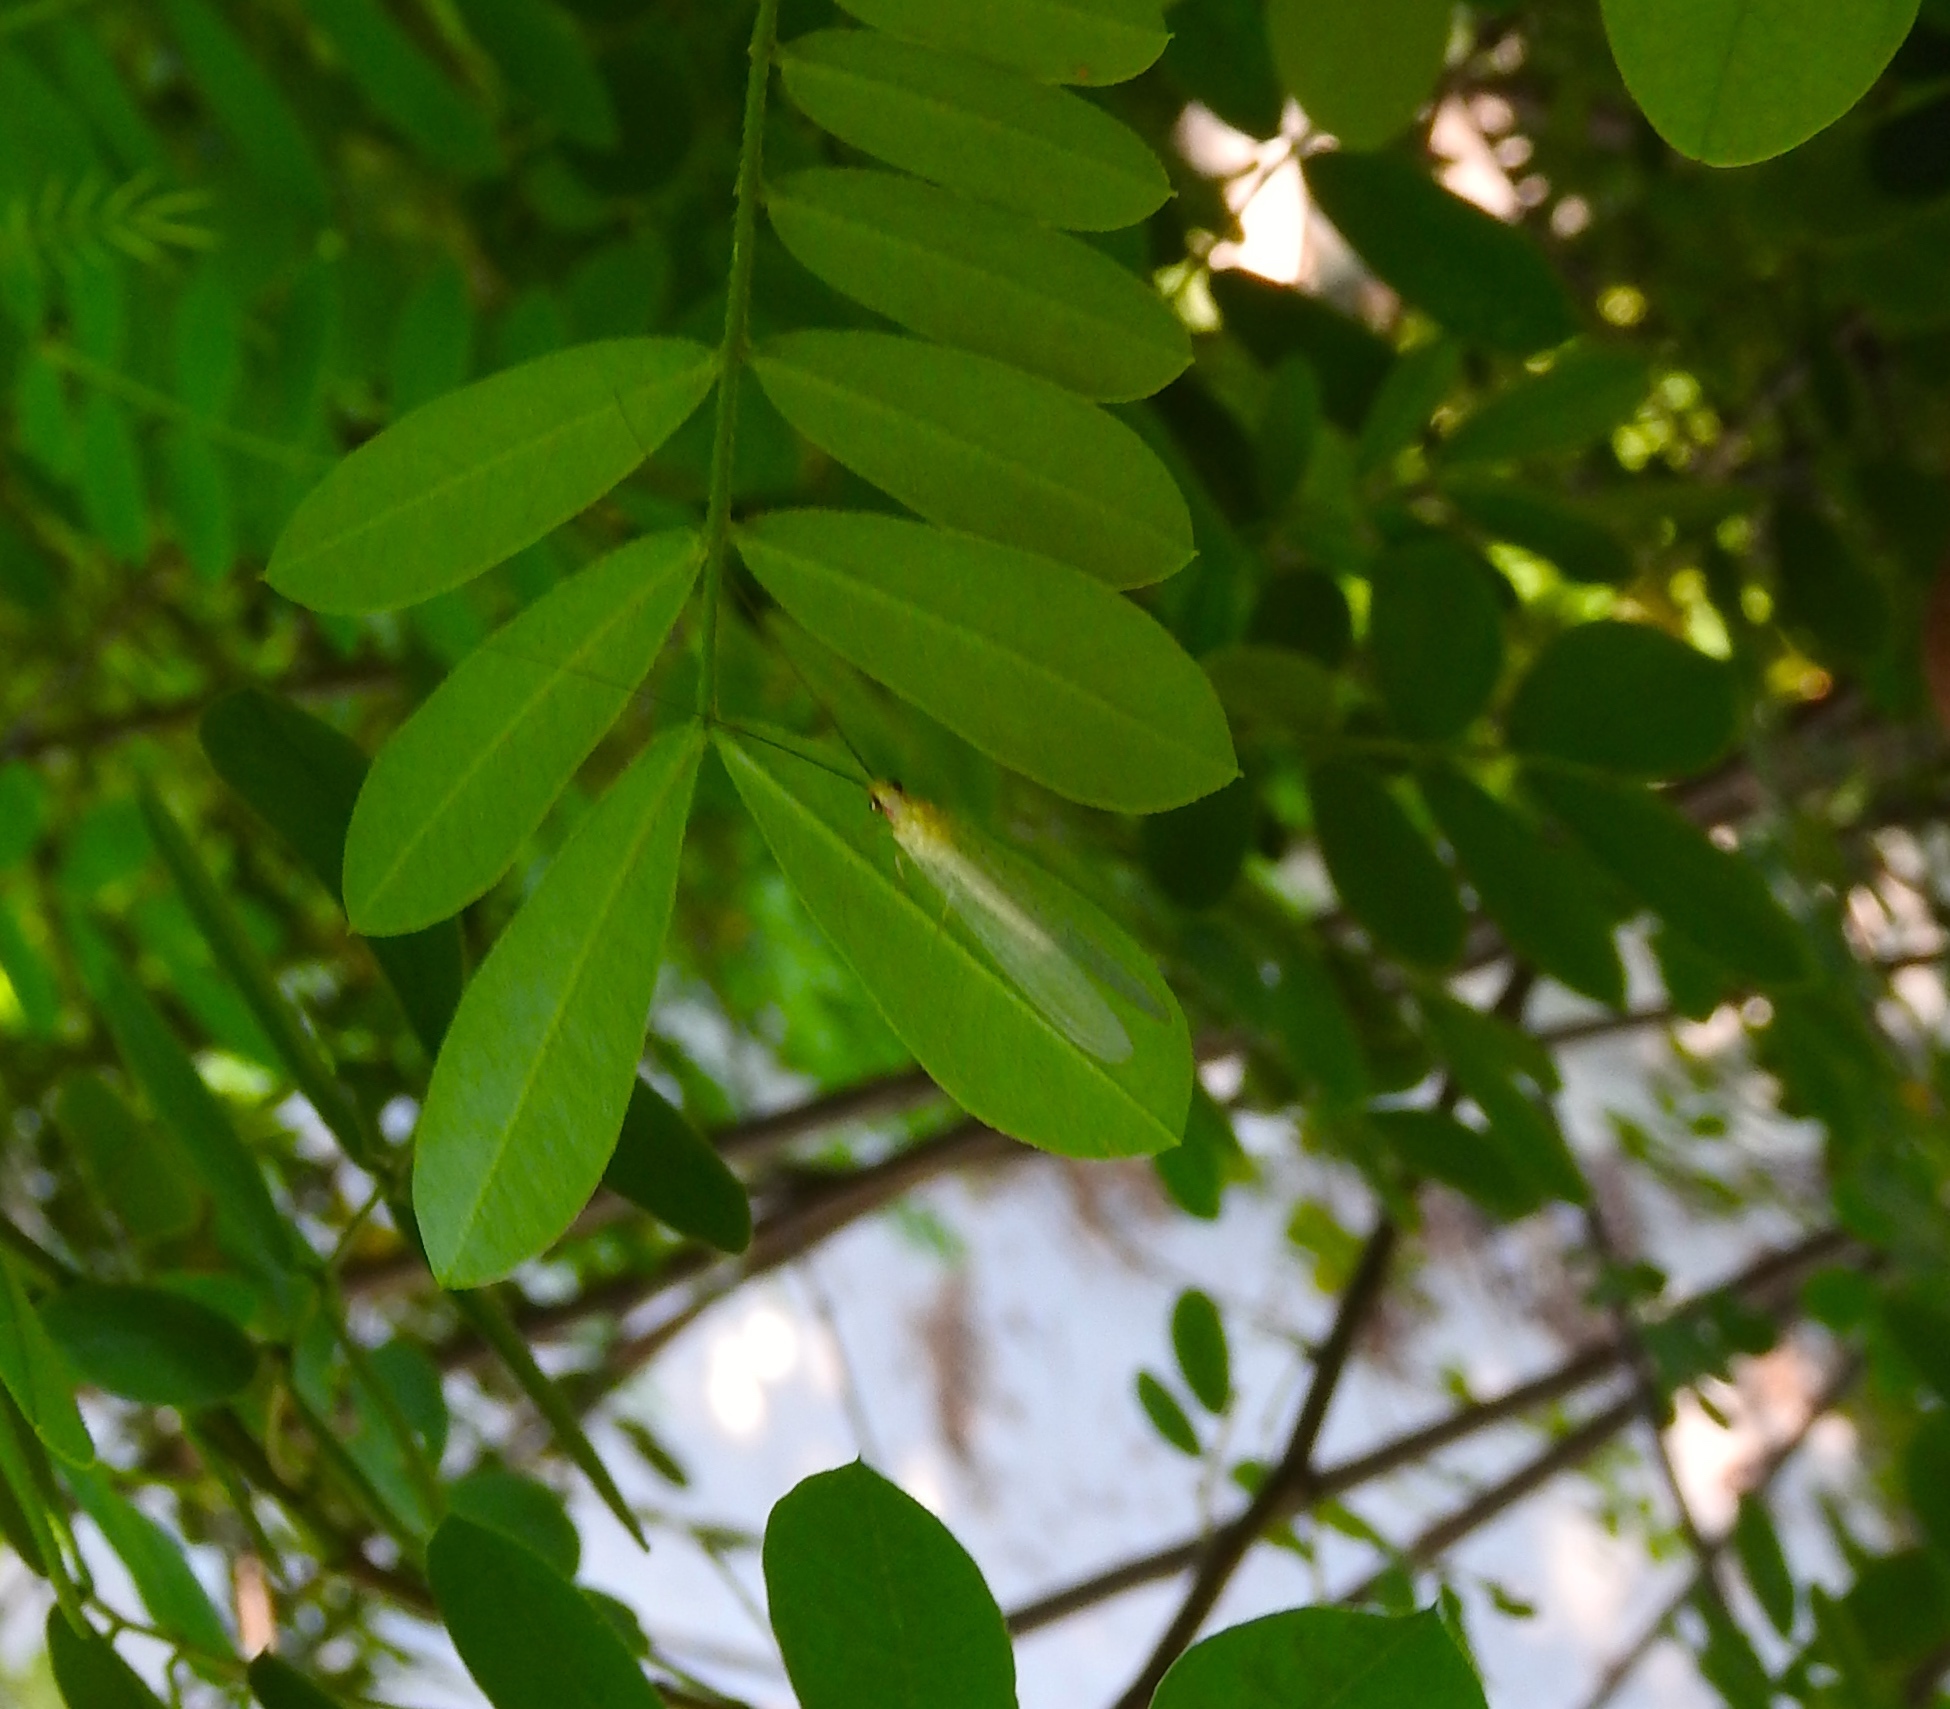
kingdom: Animalia
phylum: Arthropoda
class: Insecta
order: Neuroptera
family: Chrysopidae
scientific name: Chrysopidae
